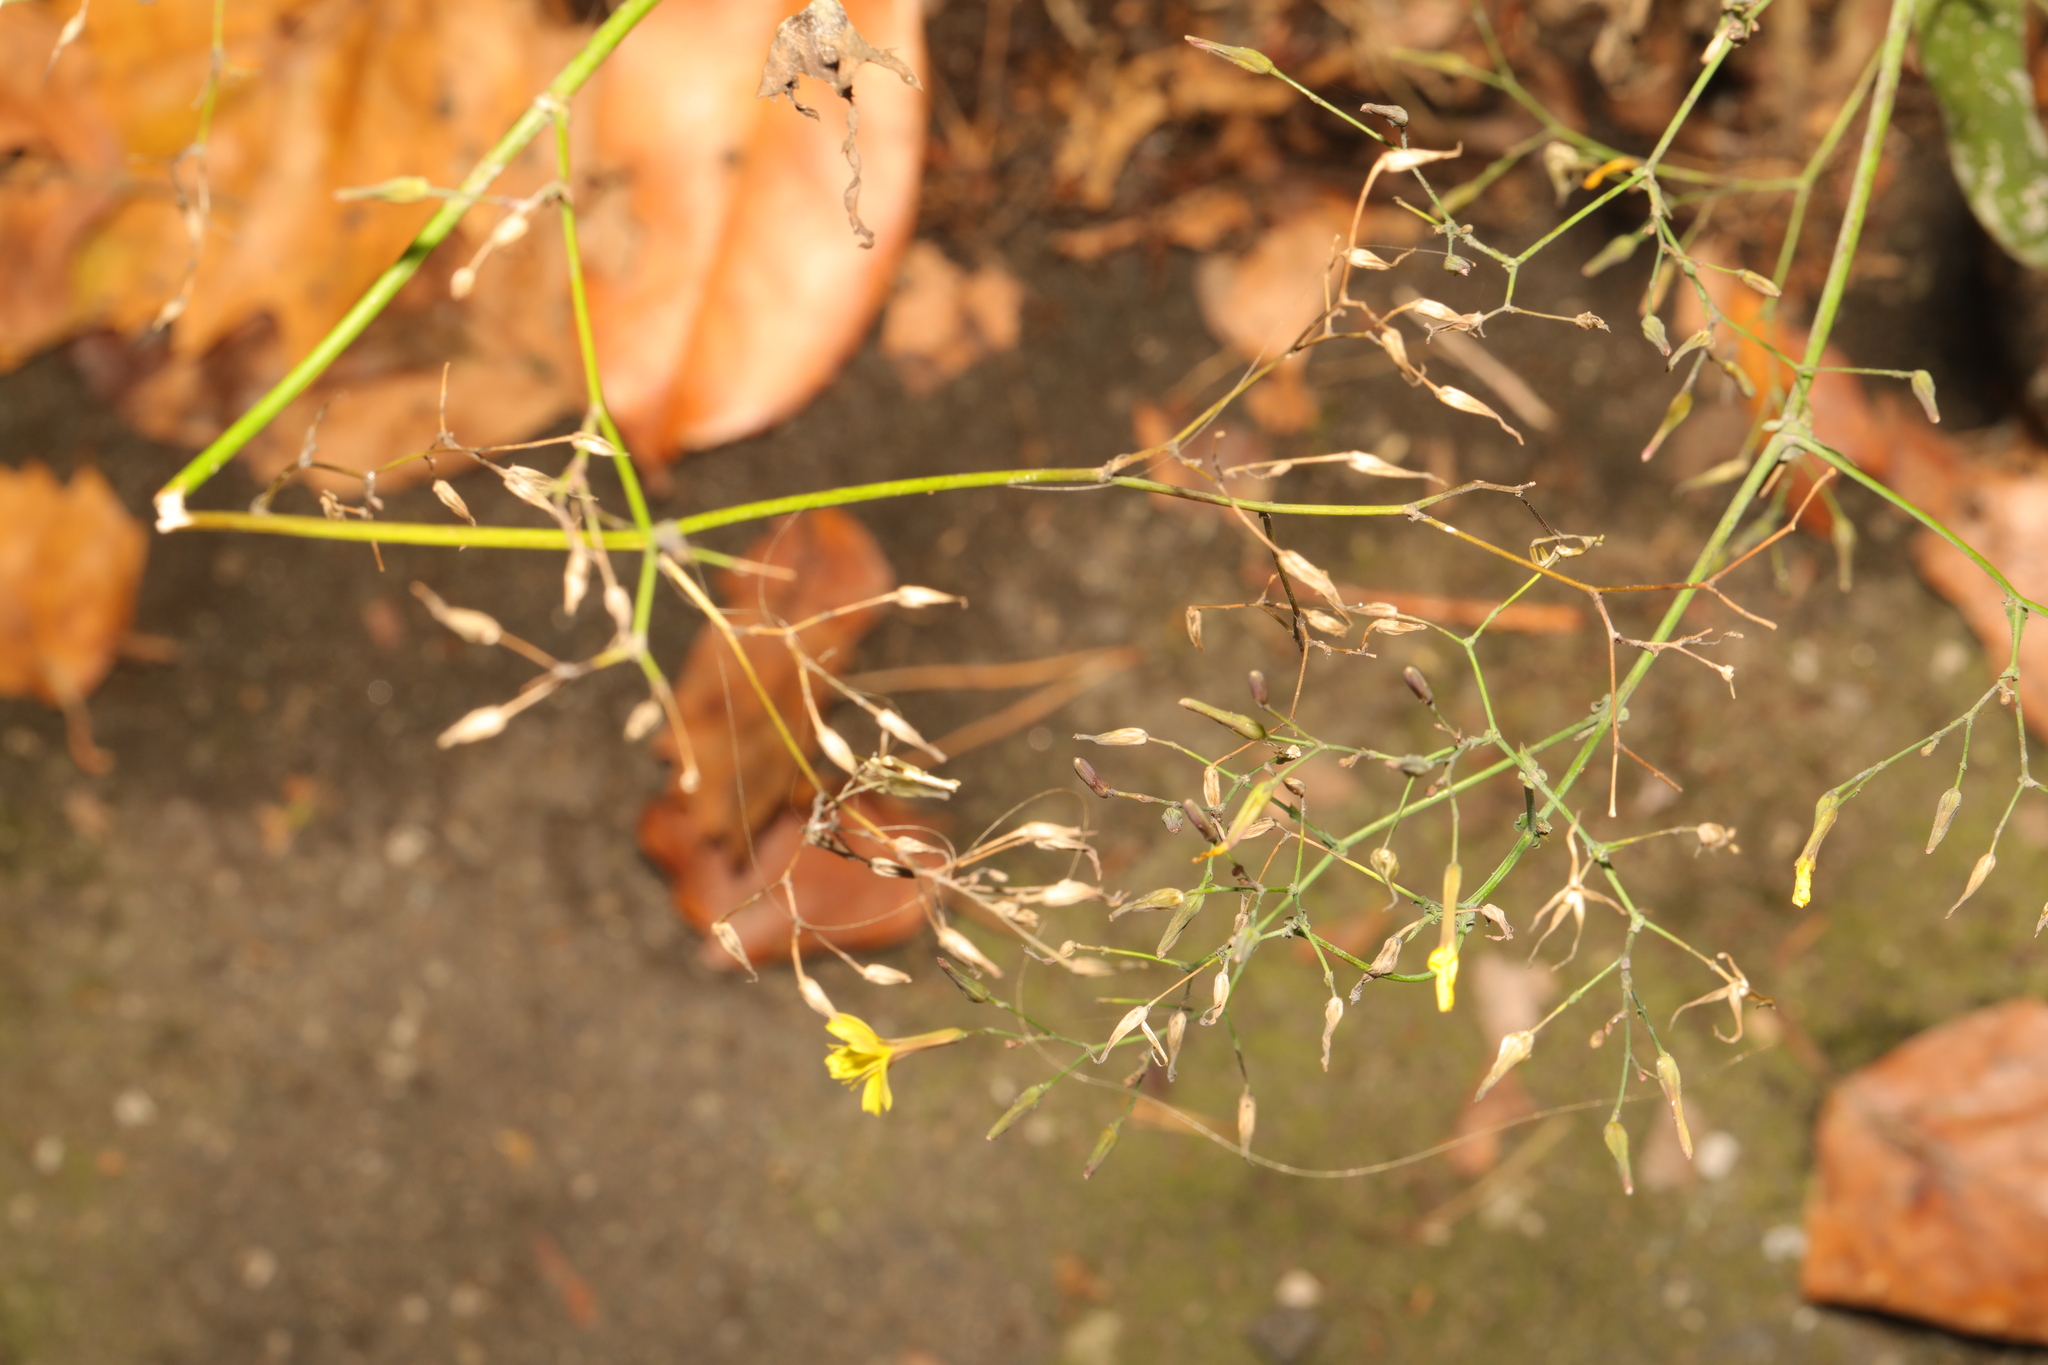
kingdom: Plantae
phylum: Tracheophyta
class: Magnoliopsida
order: Asterales
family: Asteraceae
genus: Mycelis
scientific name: Mycelis muralis
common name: Wall lettuce
